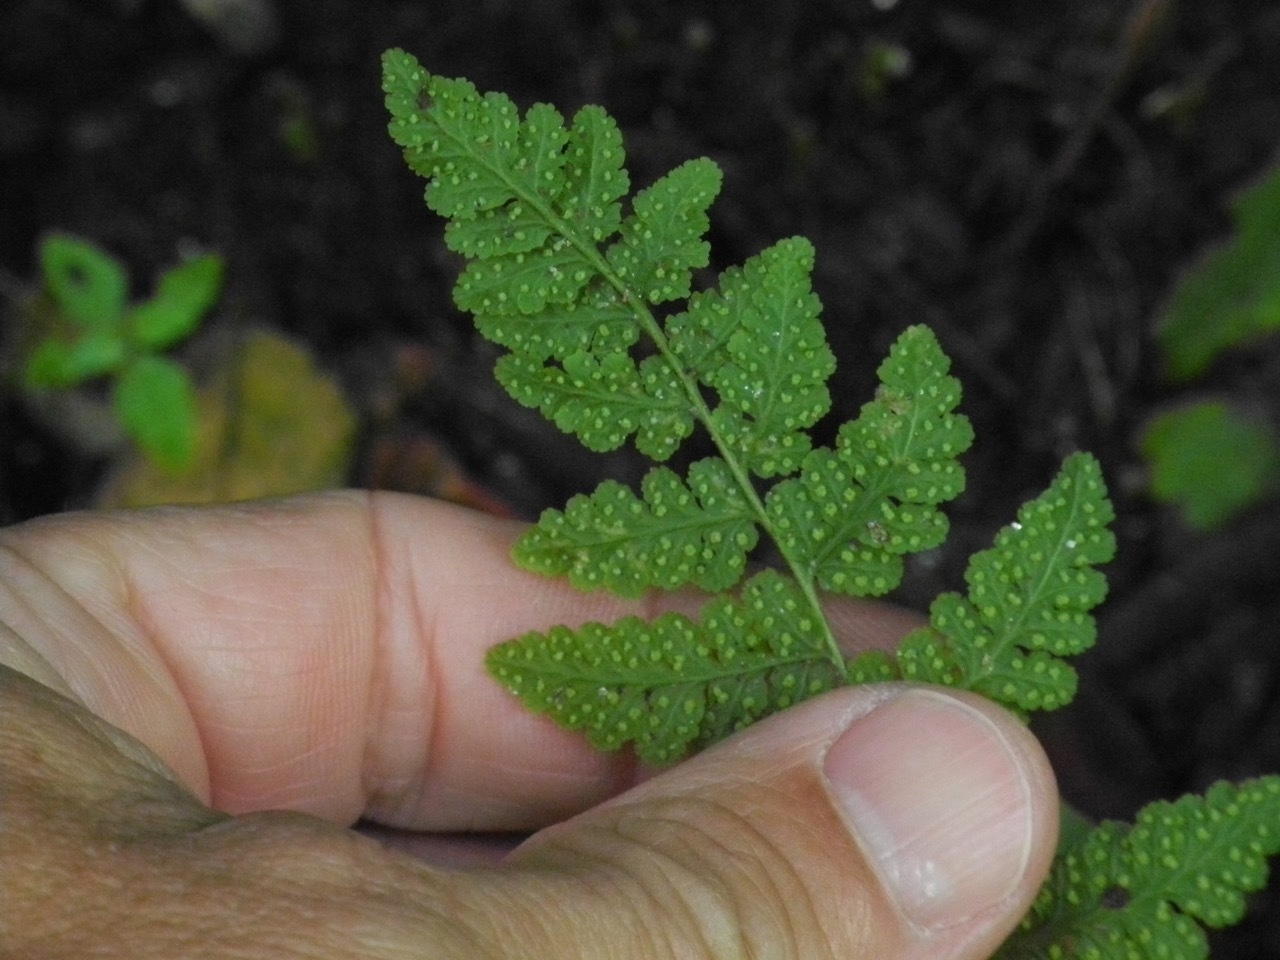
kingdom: Plantae
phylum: Tracheophyta
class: Polypodiopsida
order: Polypodiales
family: Woodsiaceae
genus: Physematium
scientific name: Physematium obtusum
